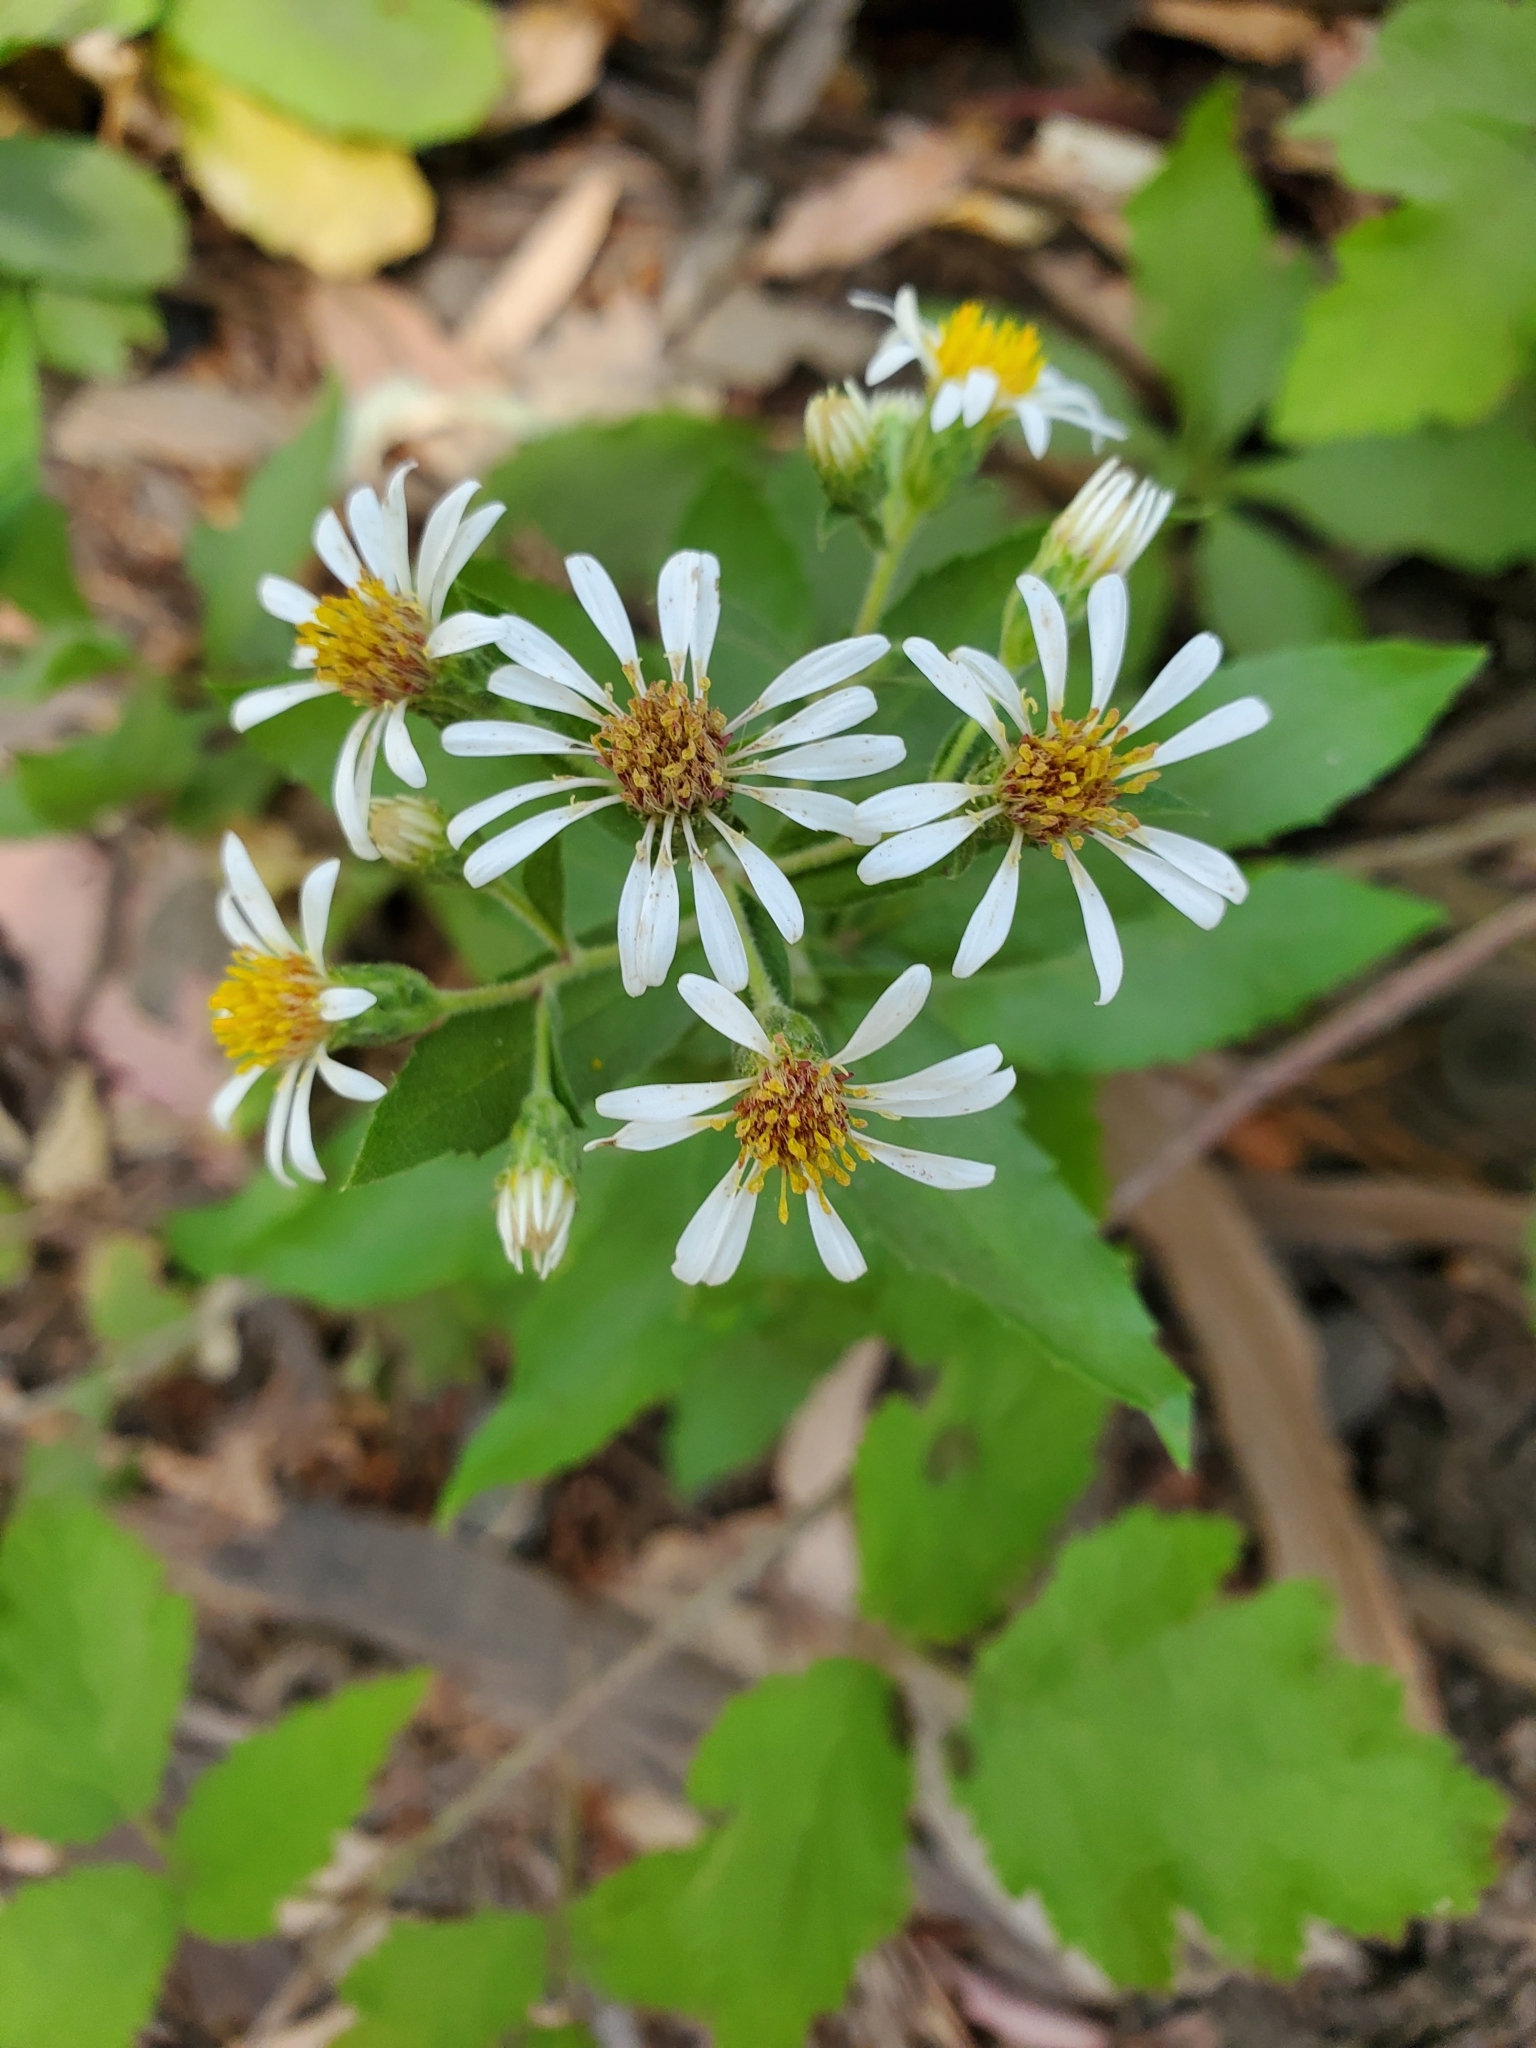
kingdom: Plantae
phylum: Tracheophyta
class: Magnoliopsida
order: Asterales
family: Asteraceae
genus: Eurybia
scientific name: Eurybia radulina
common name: Rough-leaved aster
